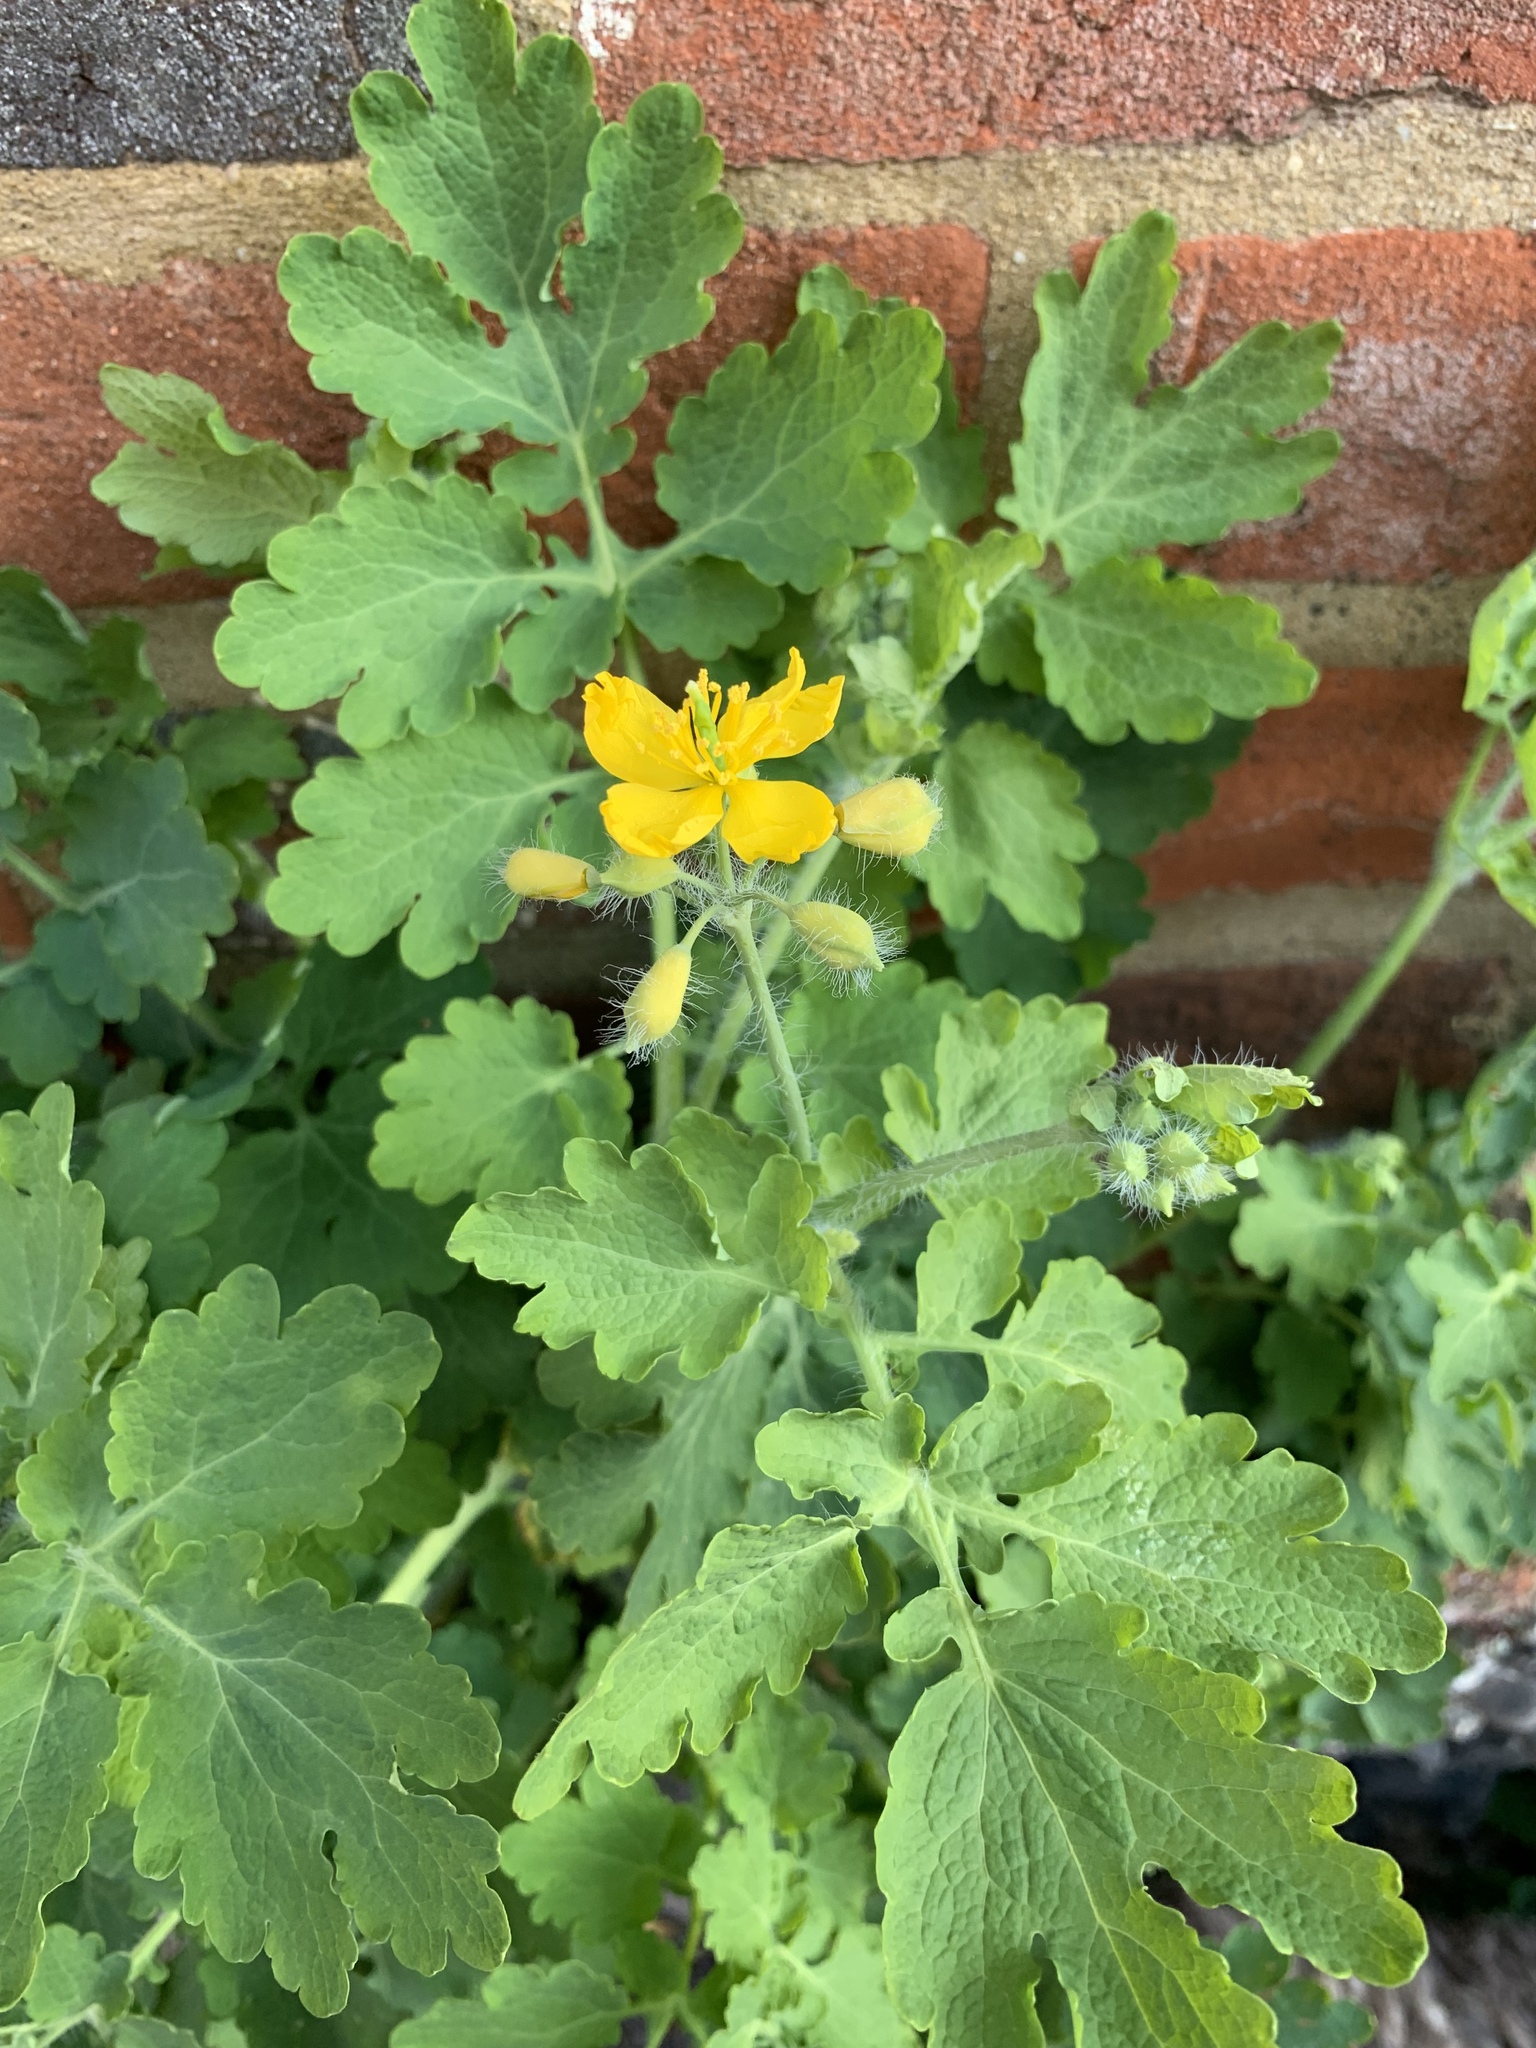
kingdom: Plantae
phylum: Tracheophyta
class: Magnoliopsida
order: Ranunculales
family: Papaveraceae
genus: Chelidonium
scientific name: Chelidonium majus
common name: Greater celandine
